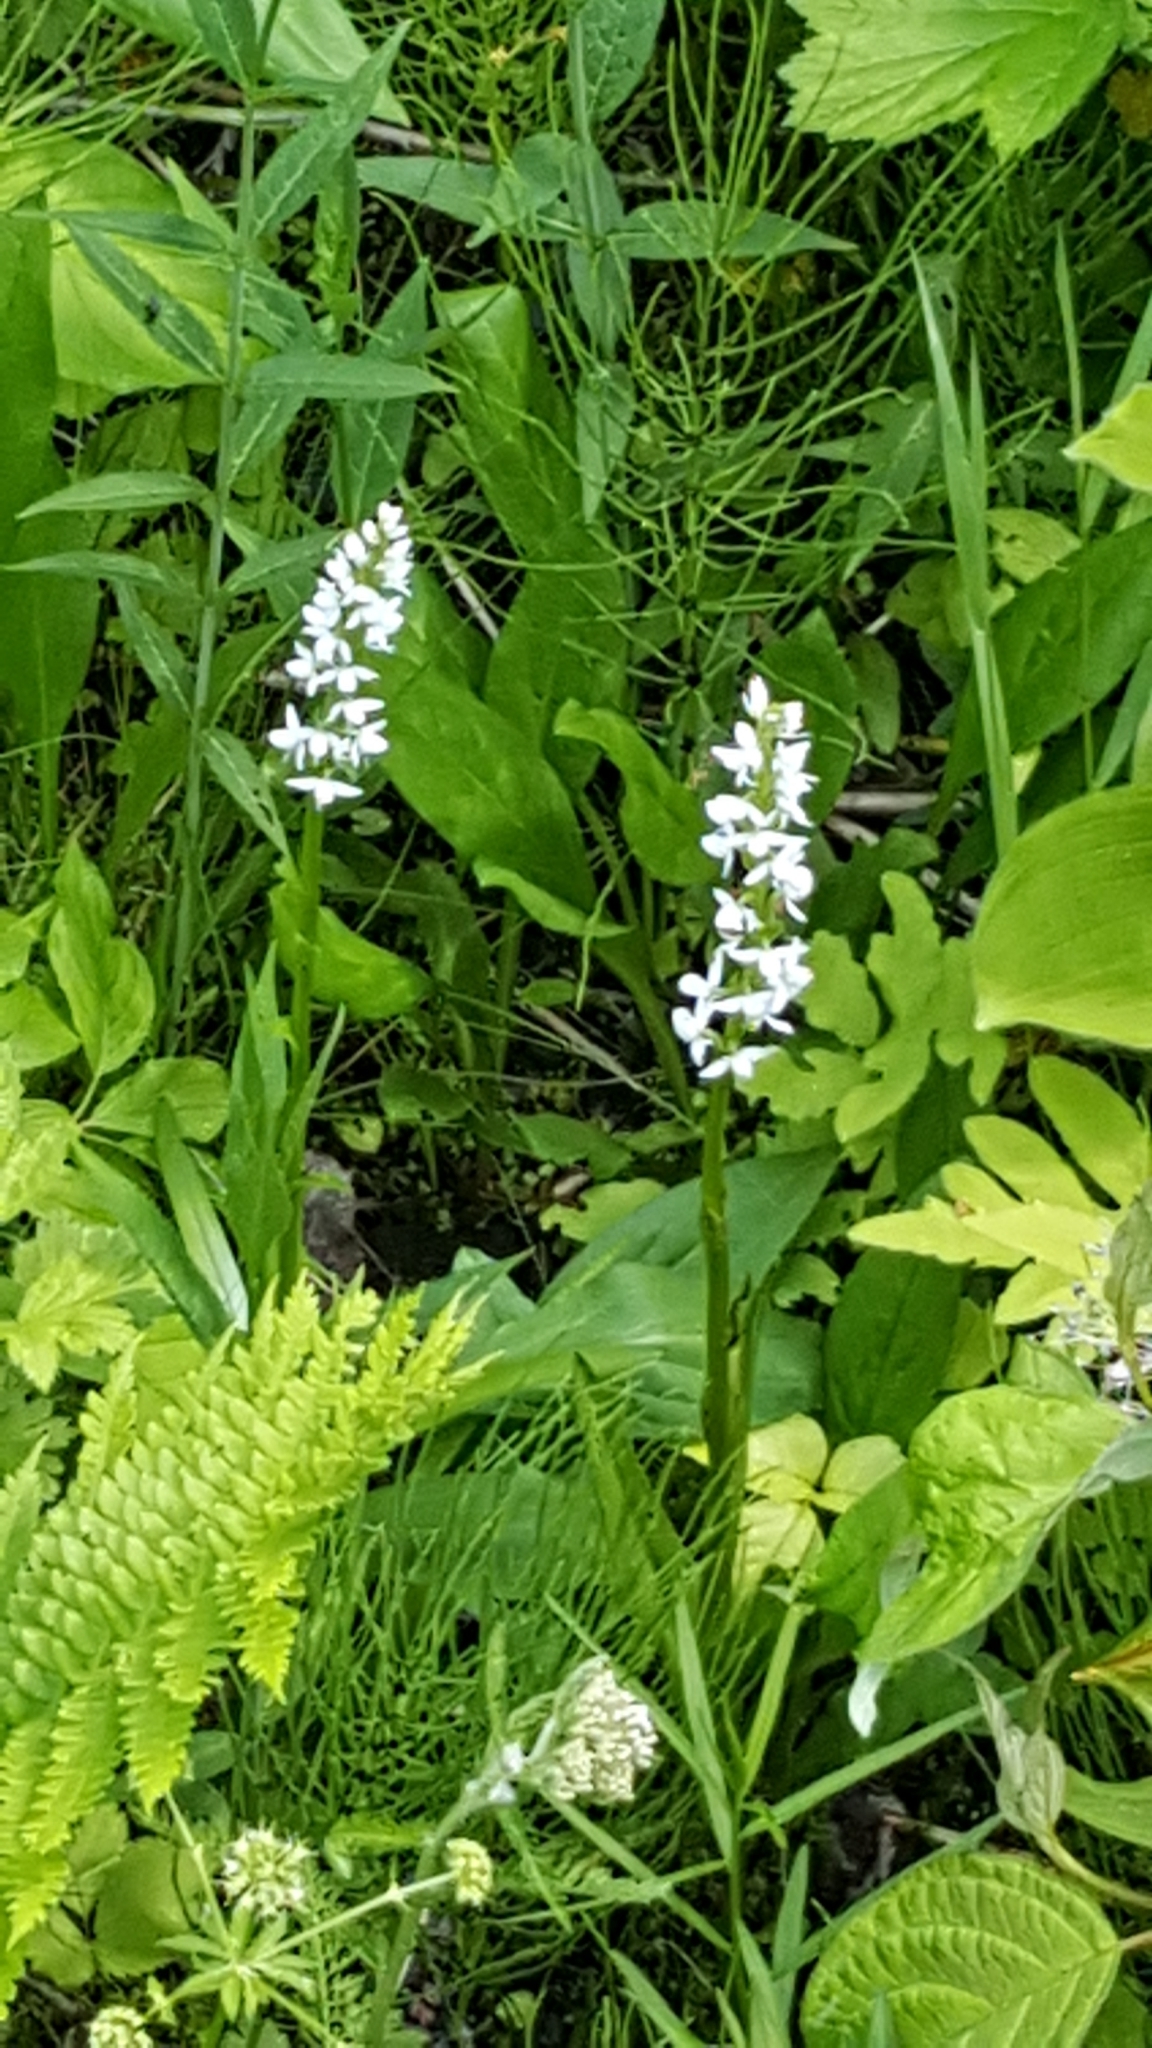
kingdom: Plantae
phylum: Tracheophyta
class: Liliopsida
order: Asparagales
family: Orchidaceae
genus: Platanthera
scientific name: Platanthera dilatata
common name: Bog candles
